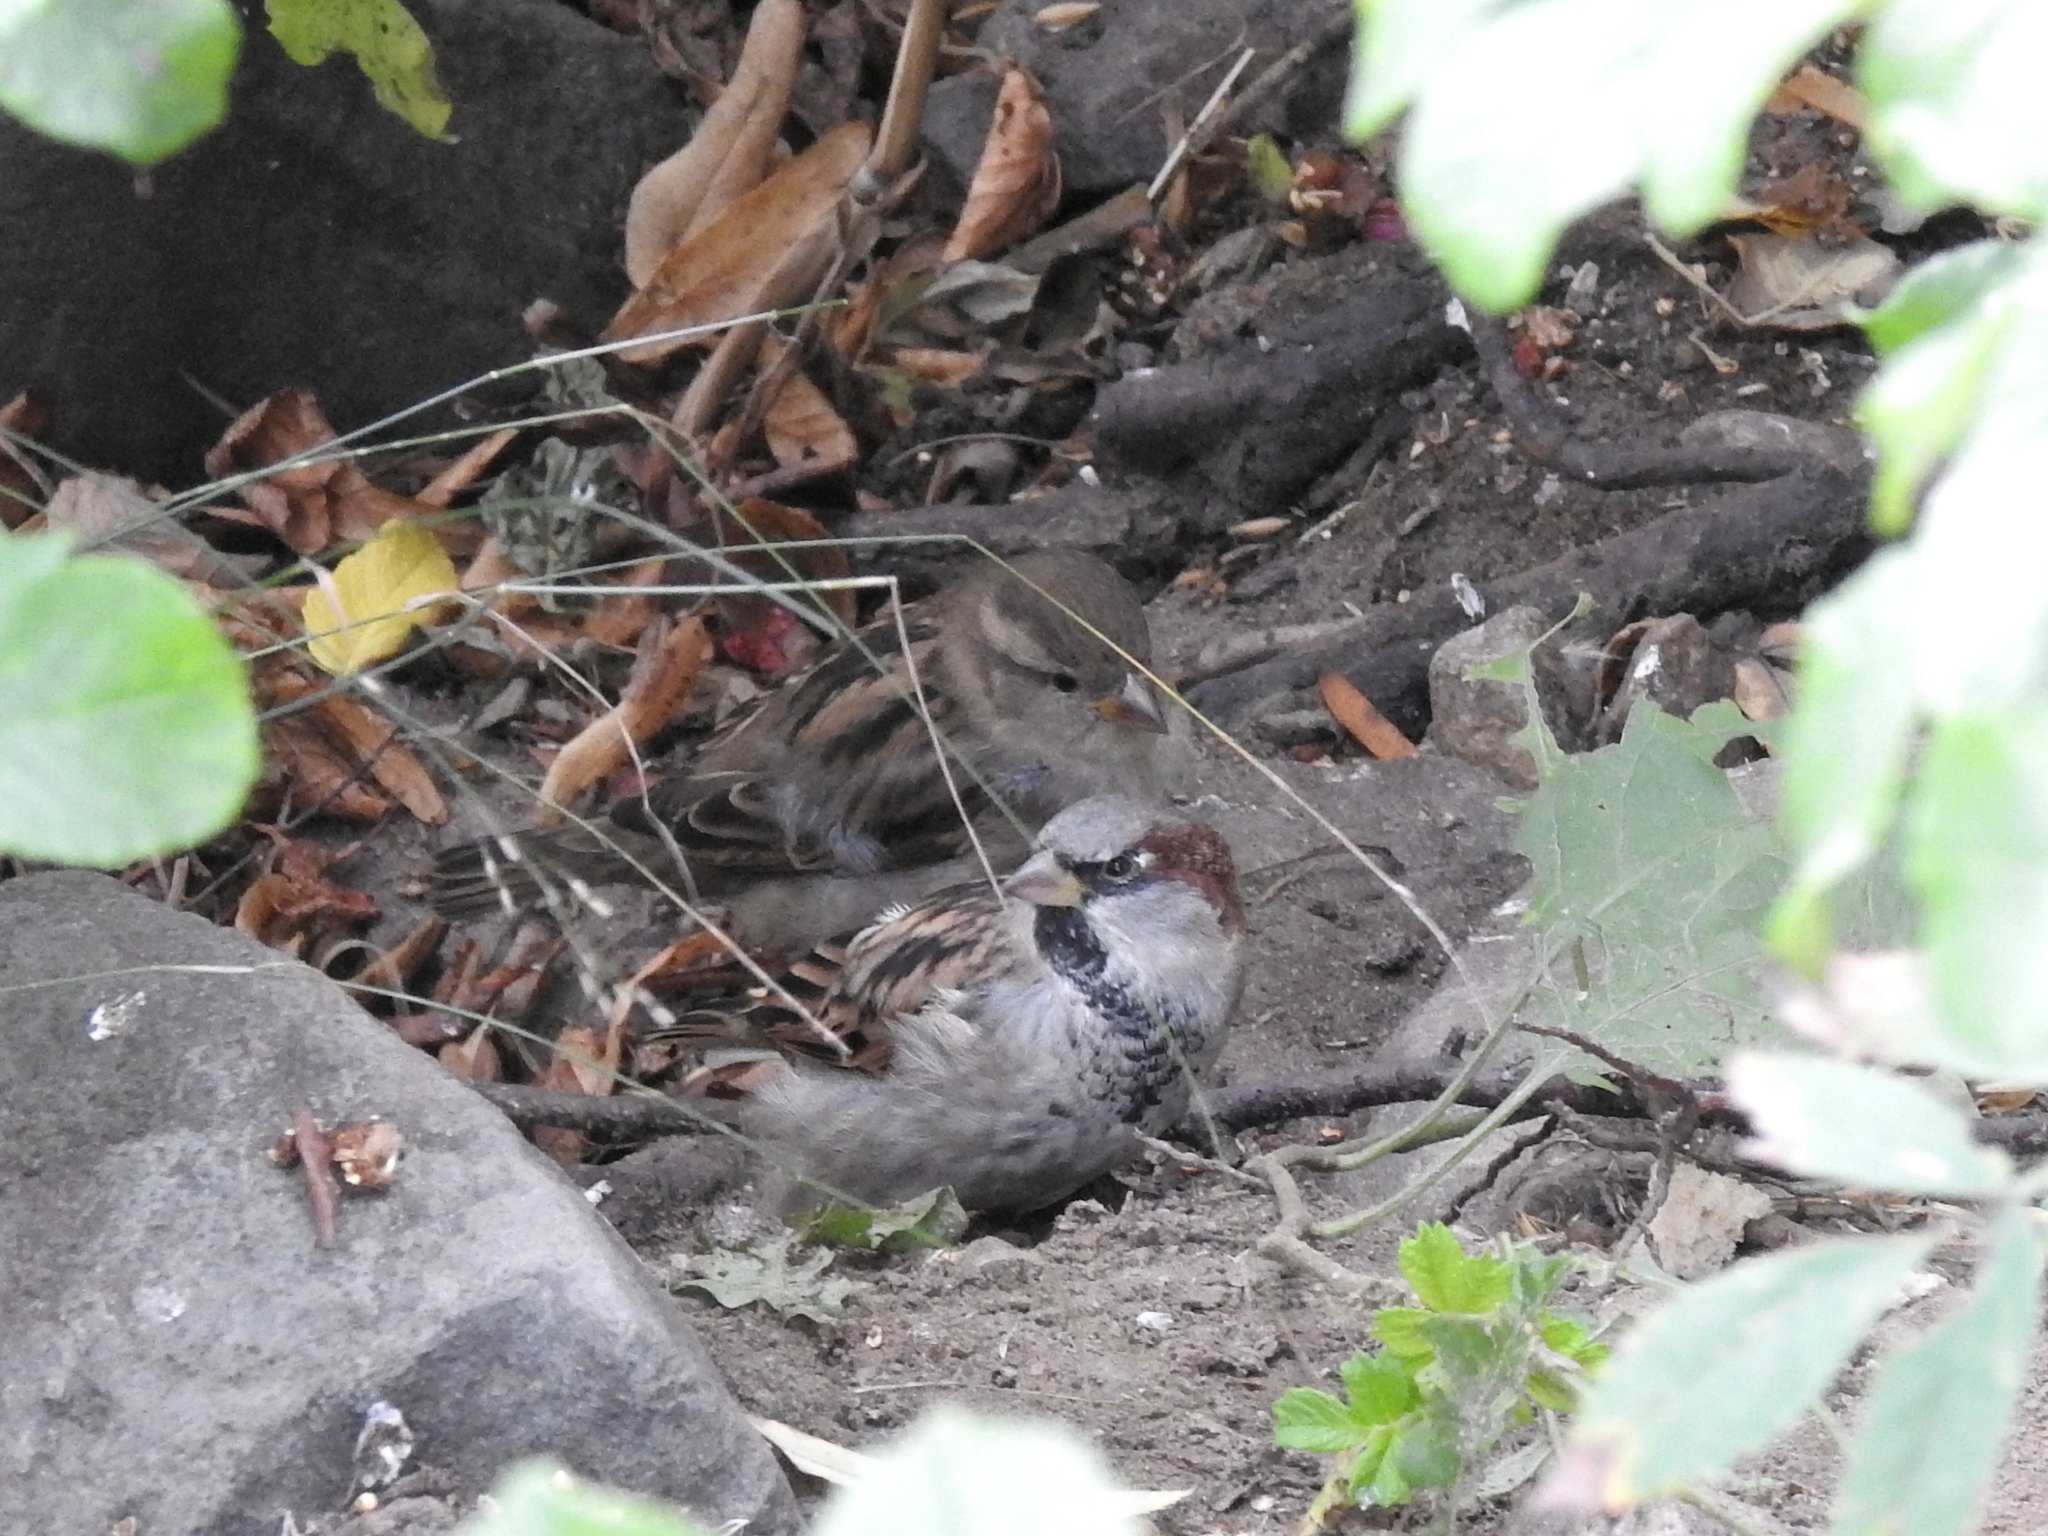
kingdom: Animalia
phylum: Chordata
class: Aves
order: Passeriformes
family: Passeridae
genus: Passer
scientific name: Passer domesticus
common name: House sparrow
